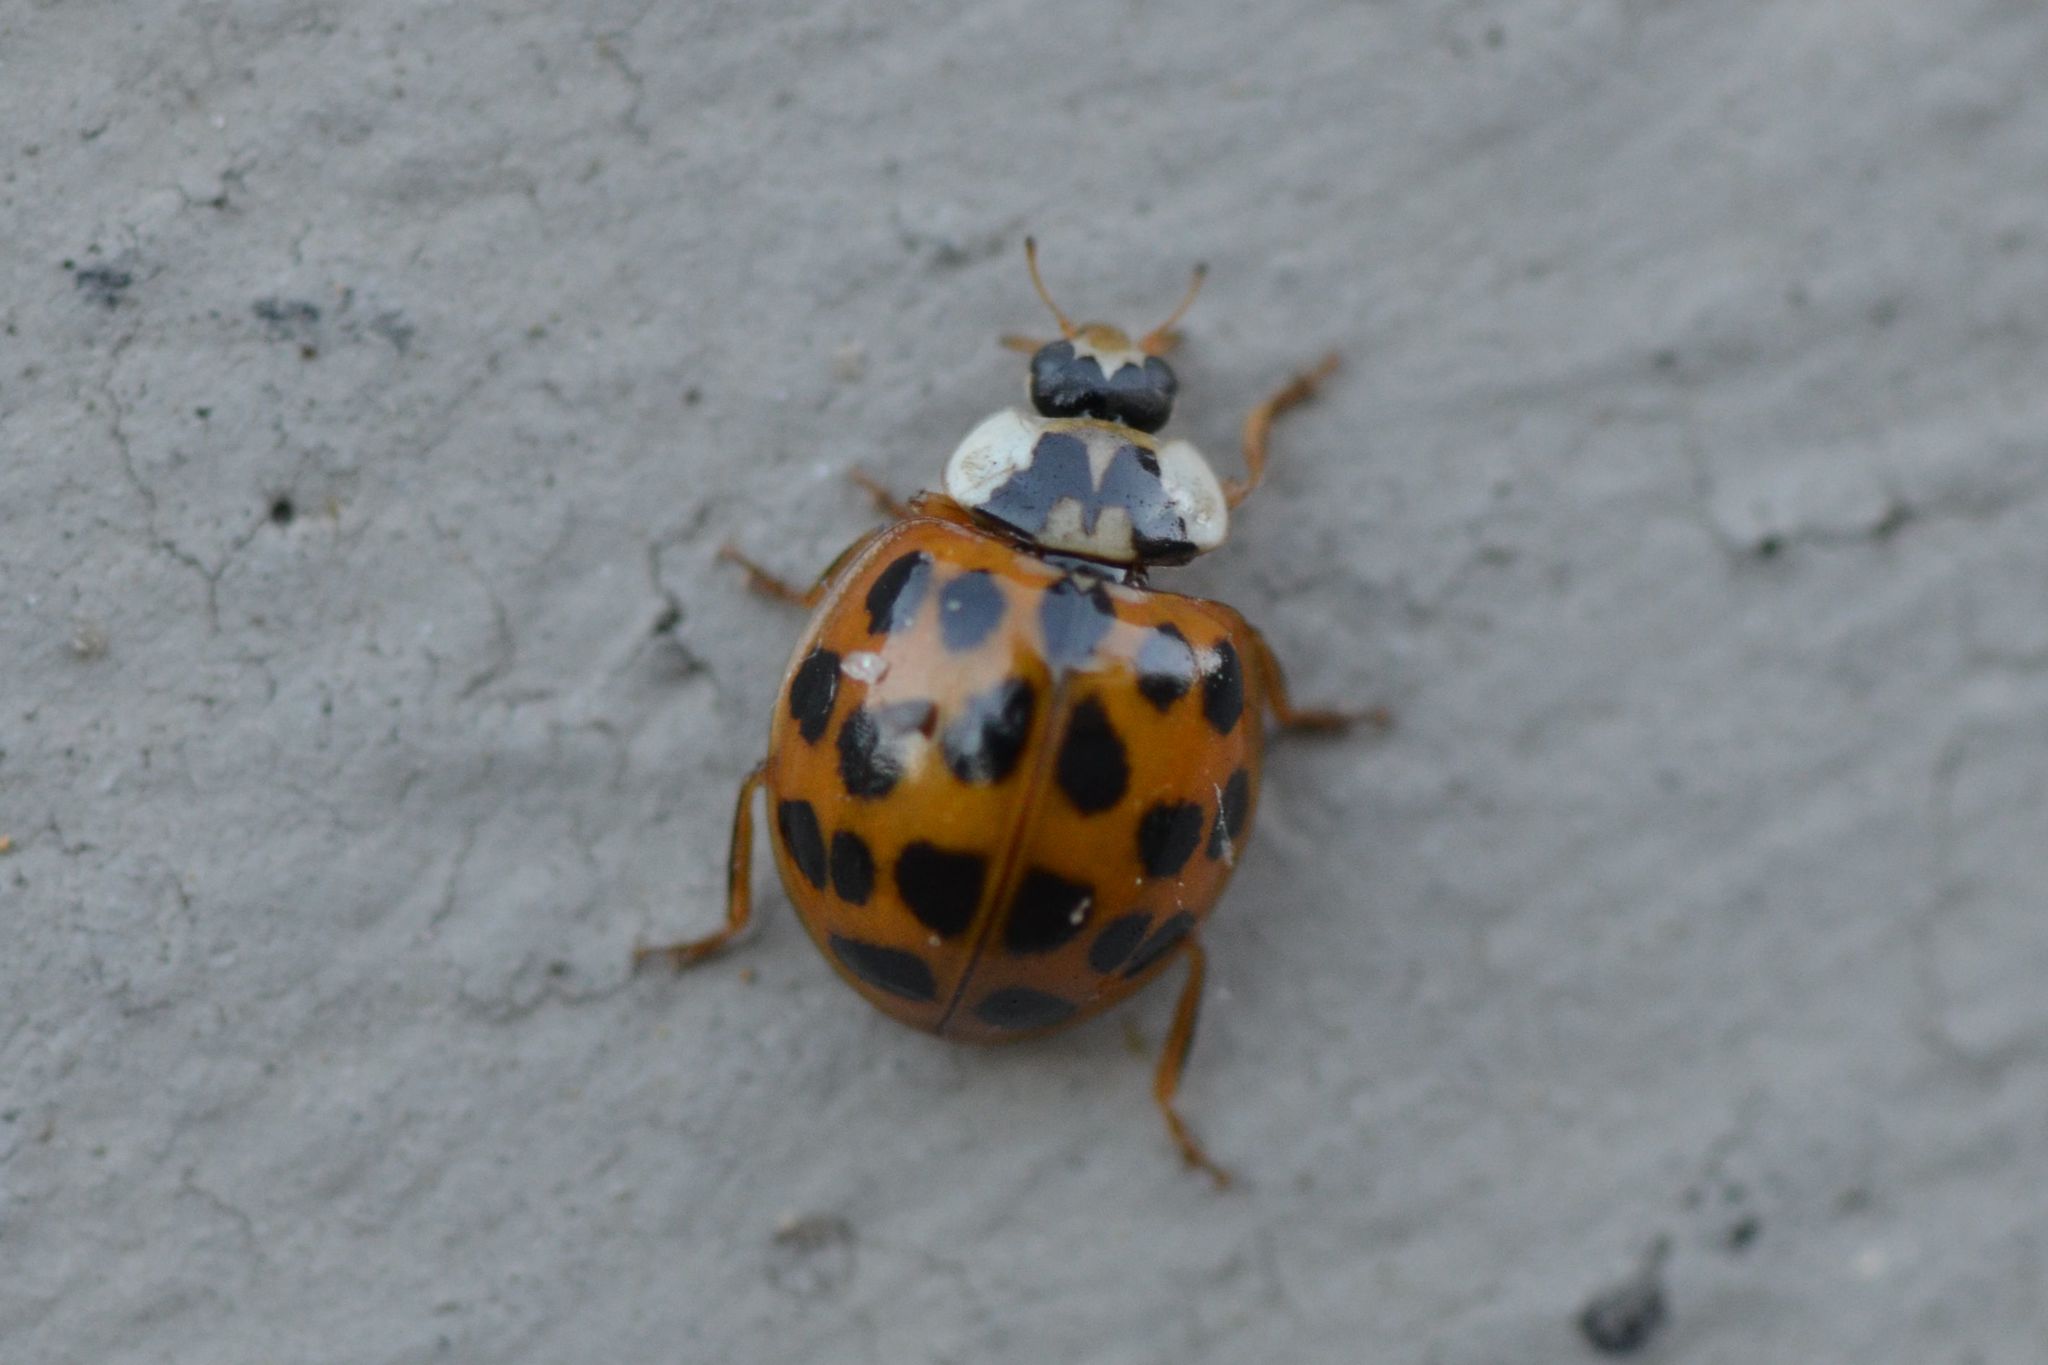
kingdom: Animalia
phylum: Arthropoda
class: Insecta
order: Coleoptera
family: Coccinellidae
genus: Harmonia
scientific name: Harmonia axyridis
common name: Harlequin ladybird
